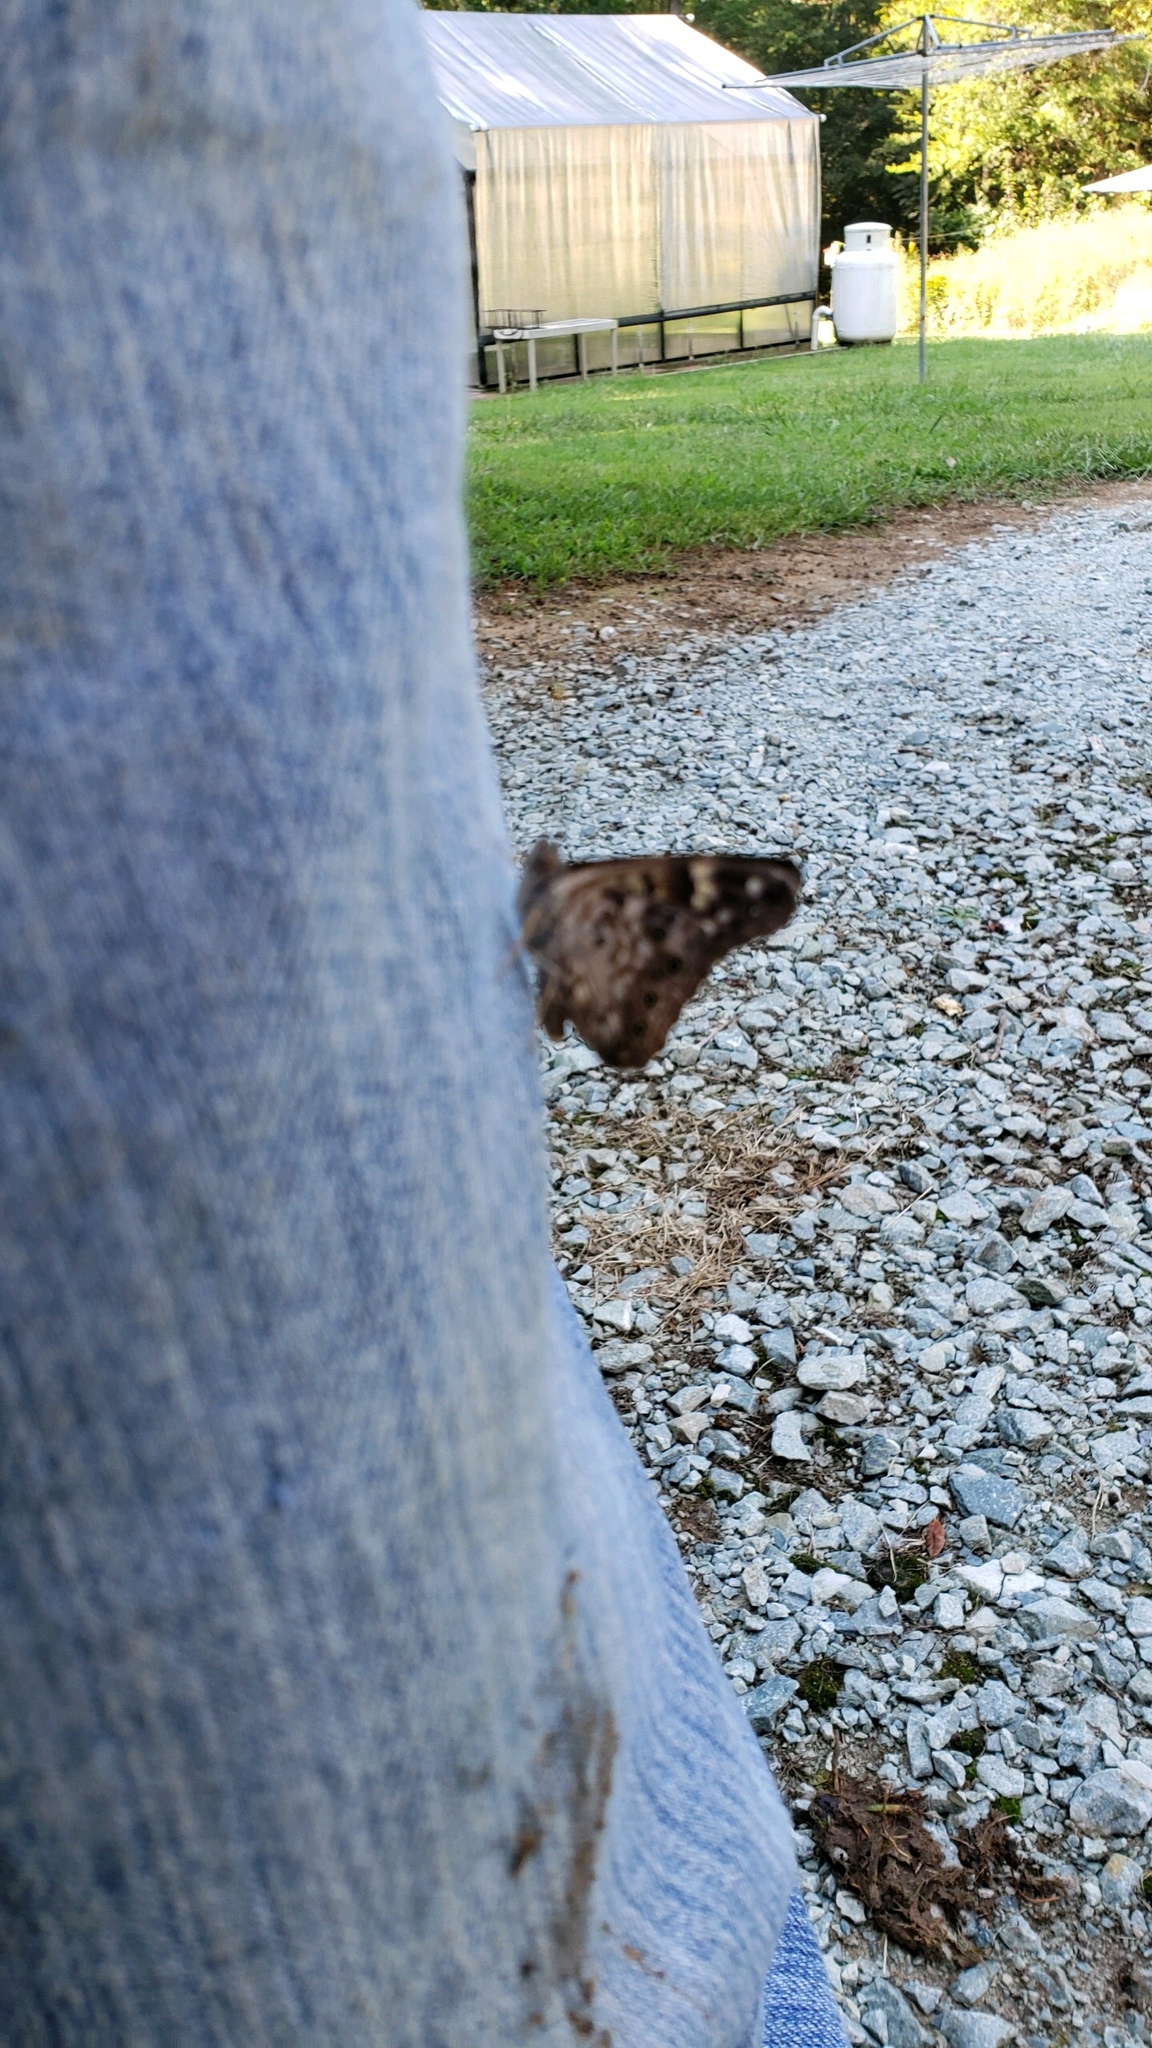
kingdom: Animalia
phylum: Arthropoda
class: Insecta
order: Lepidoptera
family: Nymphalidae
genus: Asterocampa
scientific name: Asterocampa celtis
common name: Hackberry emperor
